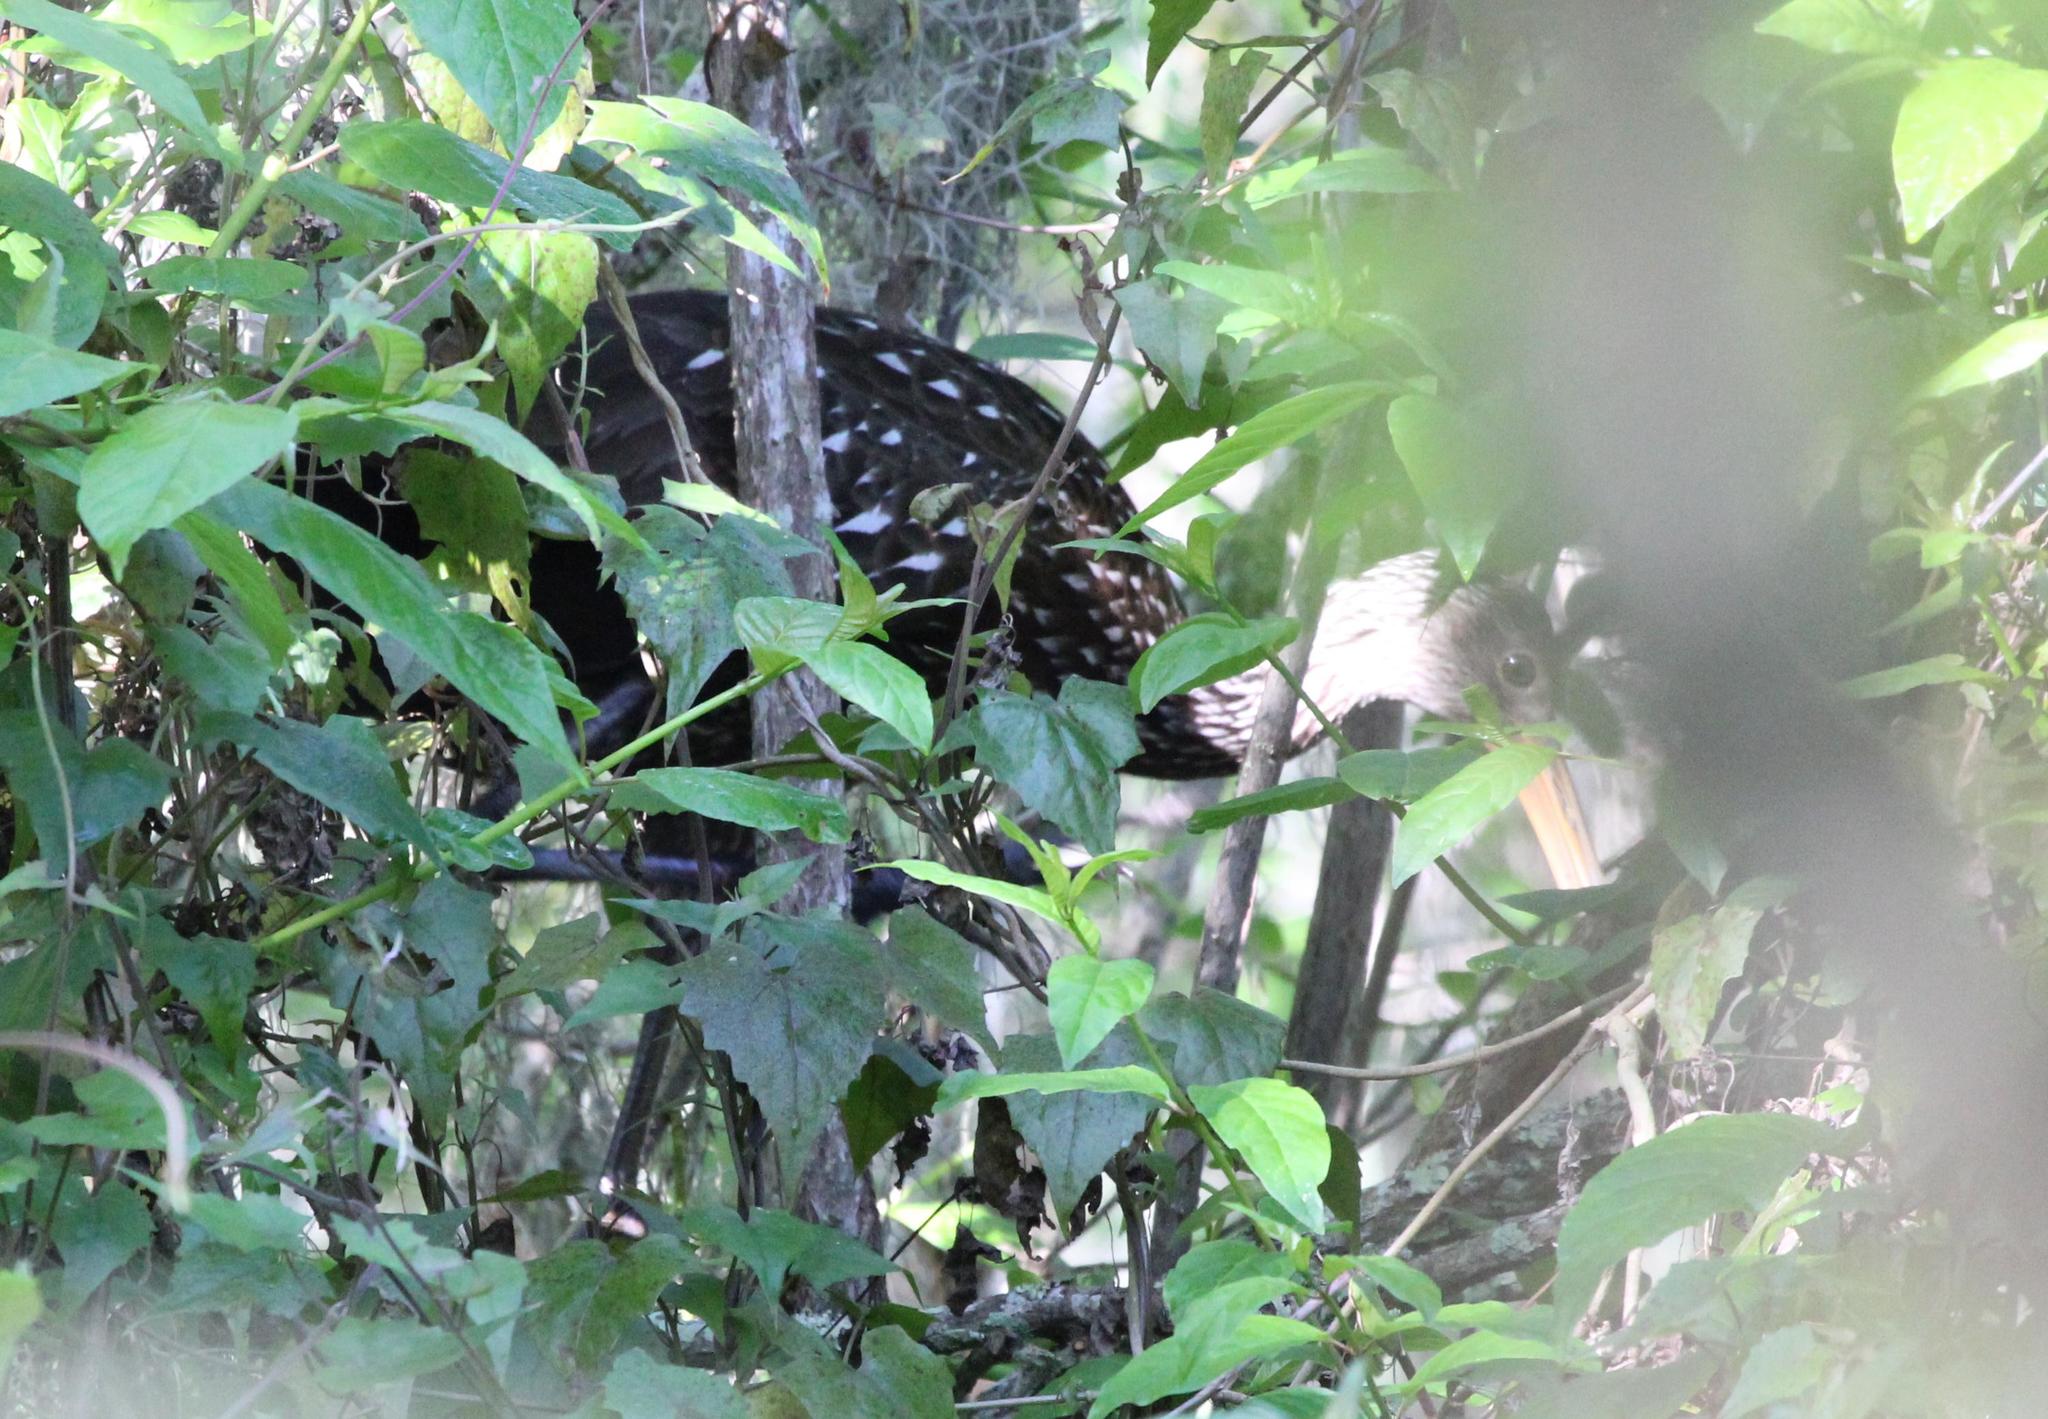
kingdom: Animalia
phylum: Chordata
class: Aves
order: Gruiformes
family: Aramidae
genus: Aramus
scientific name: Aramus guarauna
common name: Limpkin
